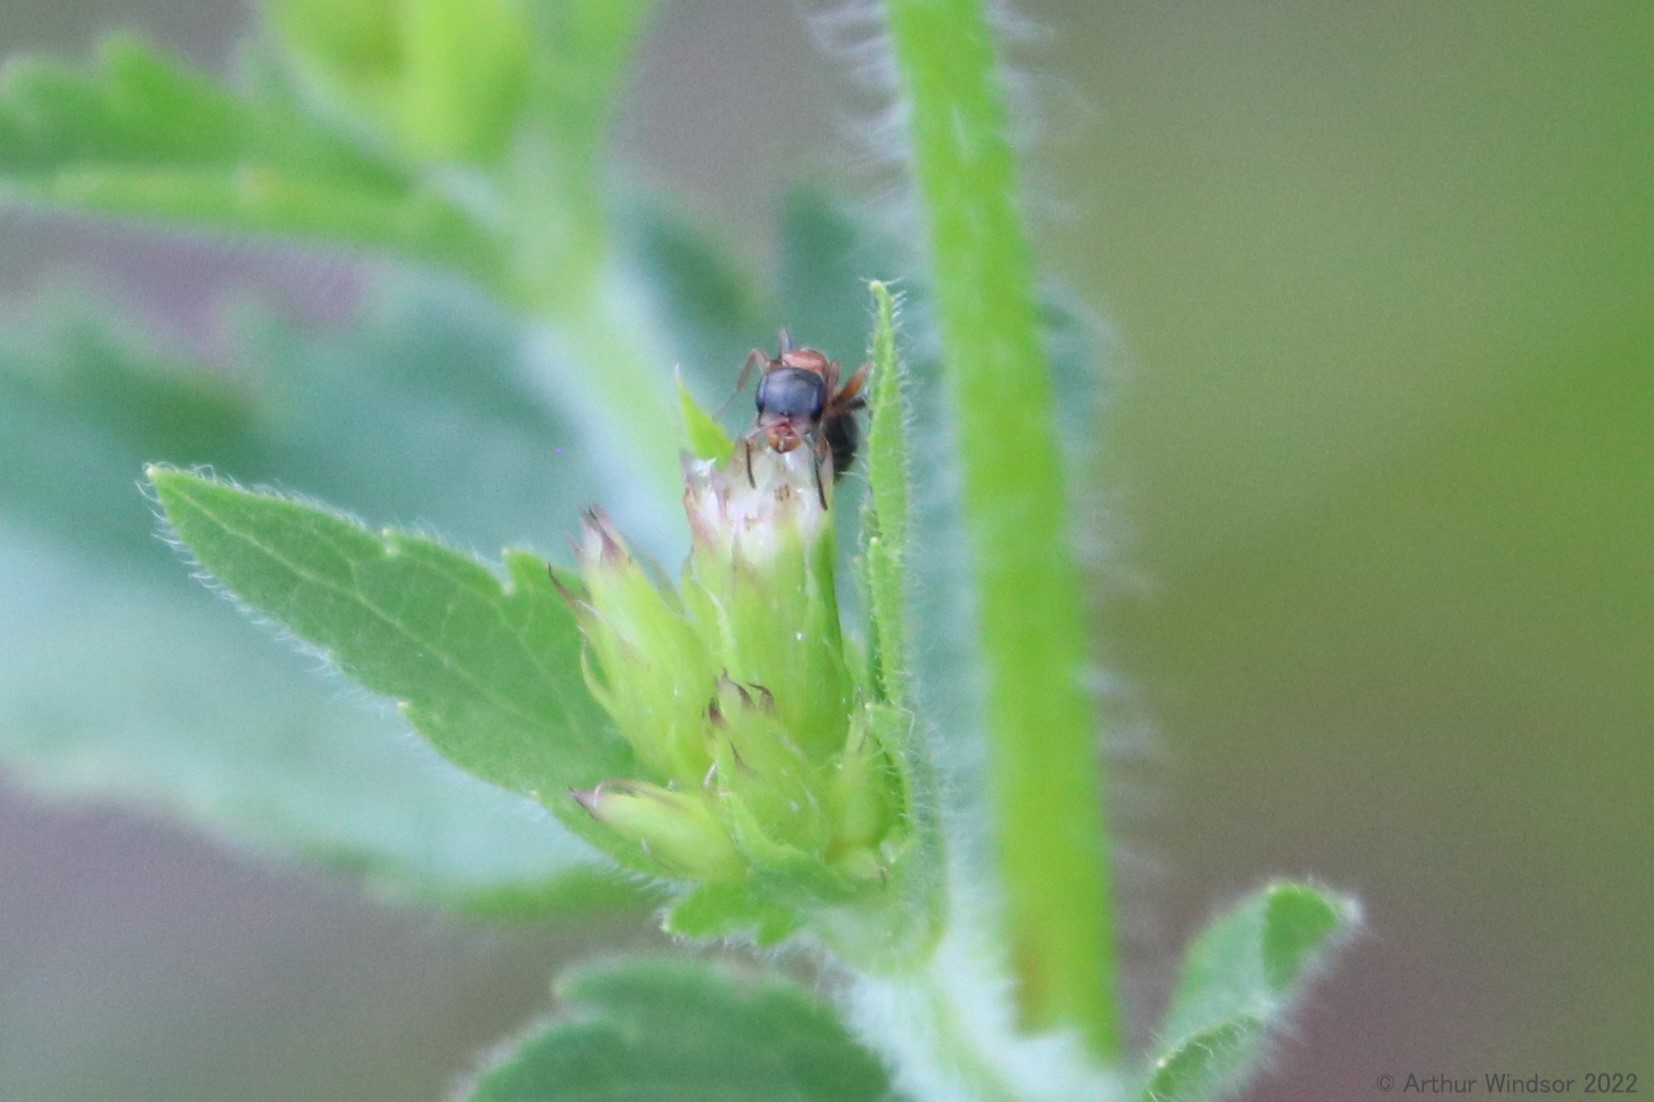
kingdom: Animalia
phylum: Arthropoda
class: Insecta
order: Hymenoptera
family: Formicidae
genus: Pseudomyrmex
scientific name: Pseudomyrmex gracilis
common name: Graceful twig ant
